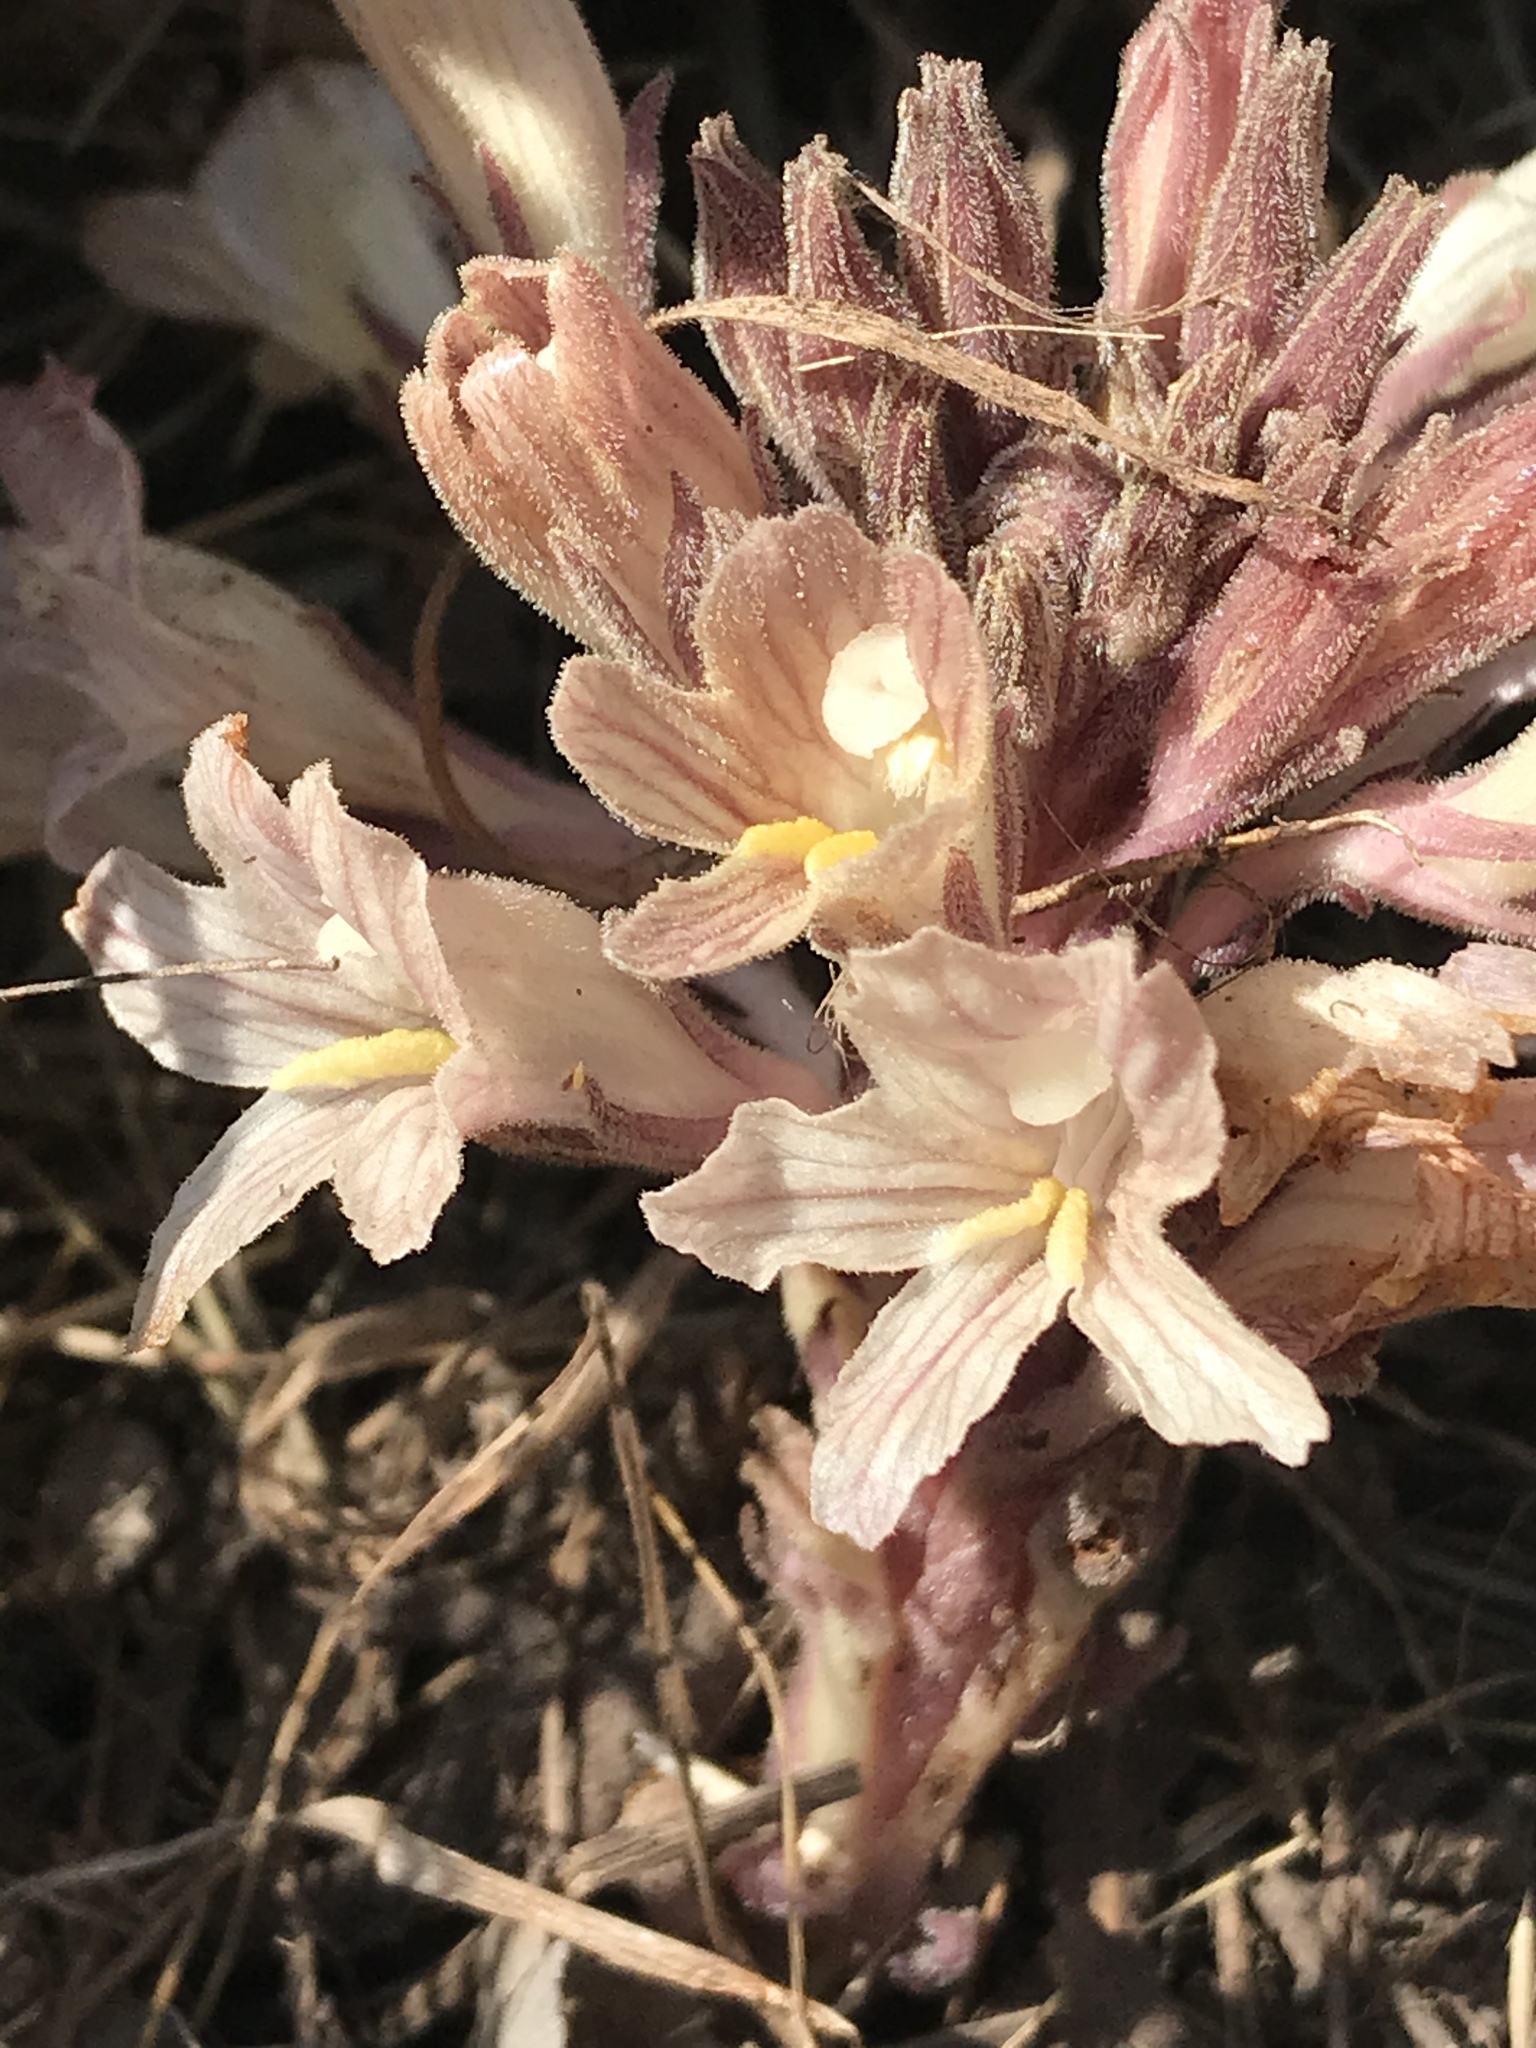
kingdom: Plantae
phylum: Tracheophyta
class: Magnoliopsida
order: Lamiales
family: Orobanchaceae
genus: Aphyllon
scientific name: Aphyllon californicum
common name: California broomrape
